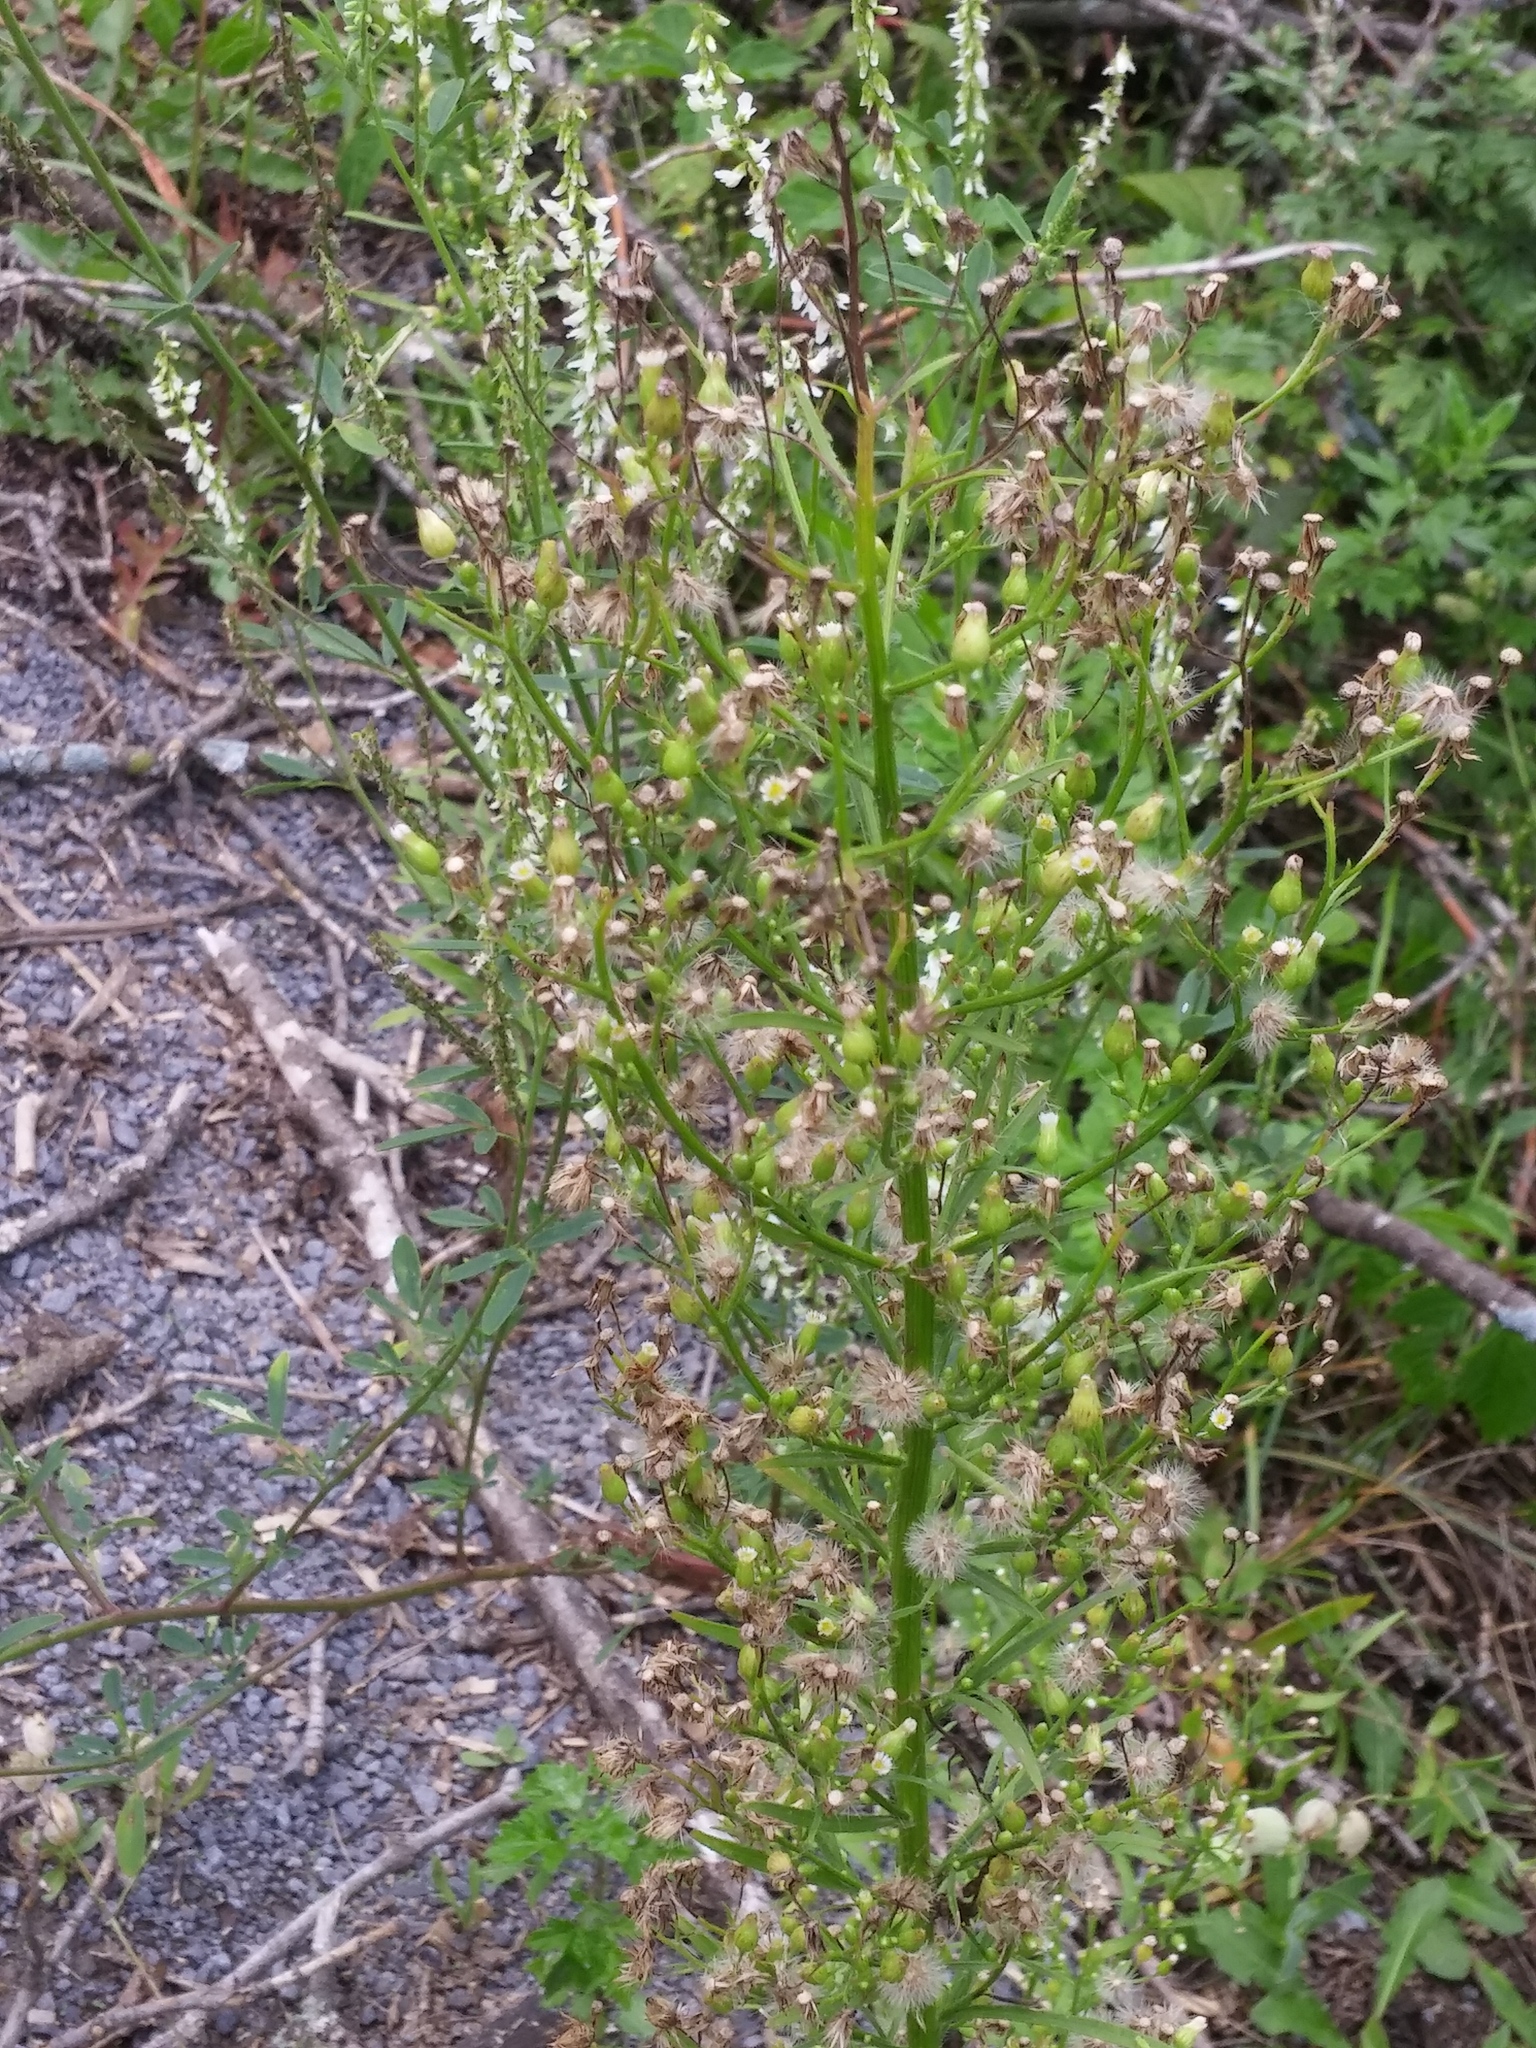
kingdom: Plantae
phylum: Tracheophyta
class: Magnoliopsida
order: Asterales
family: Asteraceae
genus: Erigeron
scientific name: Erigeron canadensis
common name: Canadian fleabane
